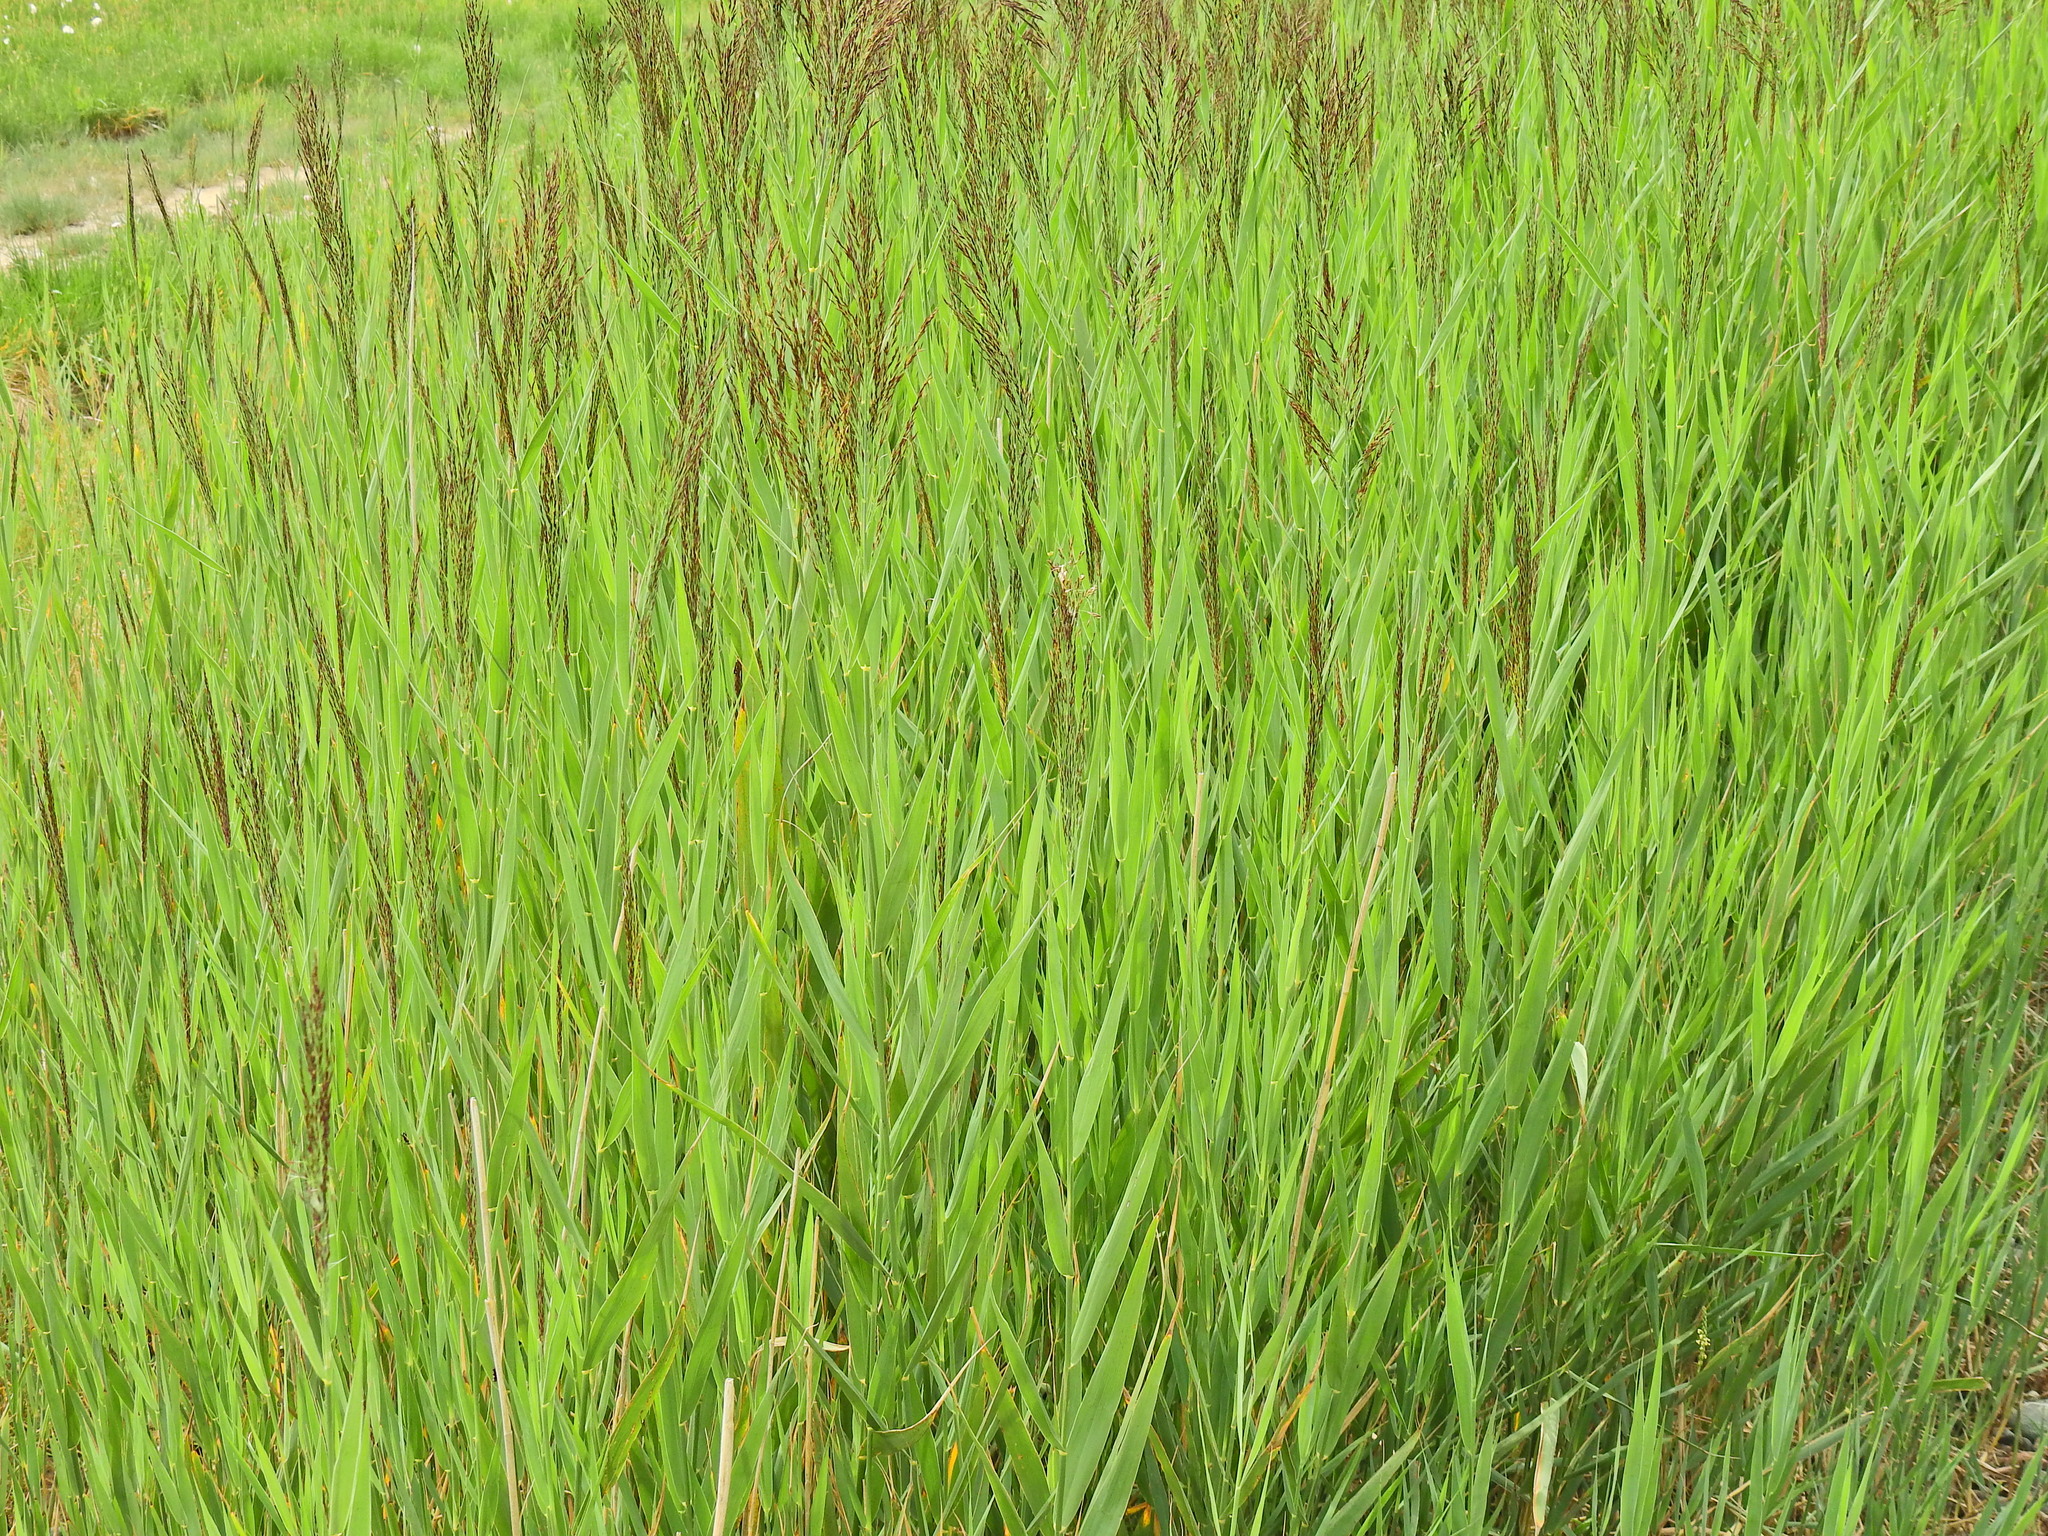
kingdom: Plantae
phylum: Tracheophyta
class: Liliopsida
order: Poales
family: Poaceae
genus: Phragmites
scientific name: Phragmites australis
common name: Common reed
